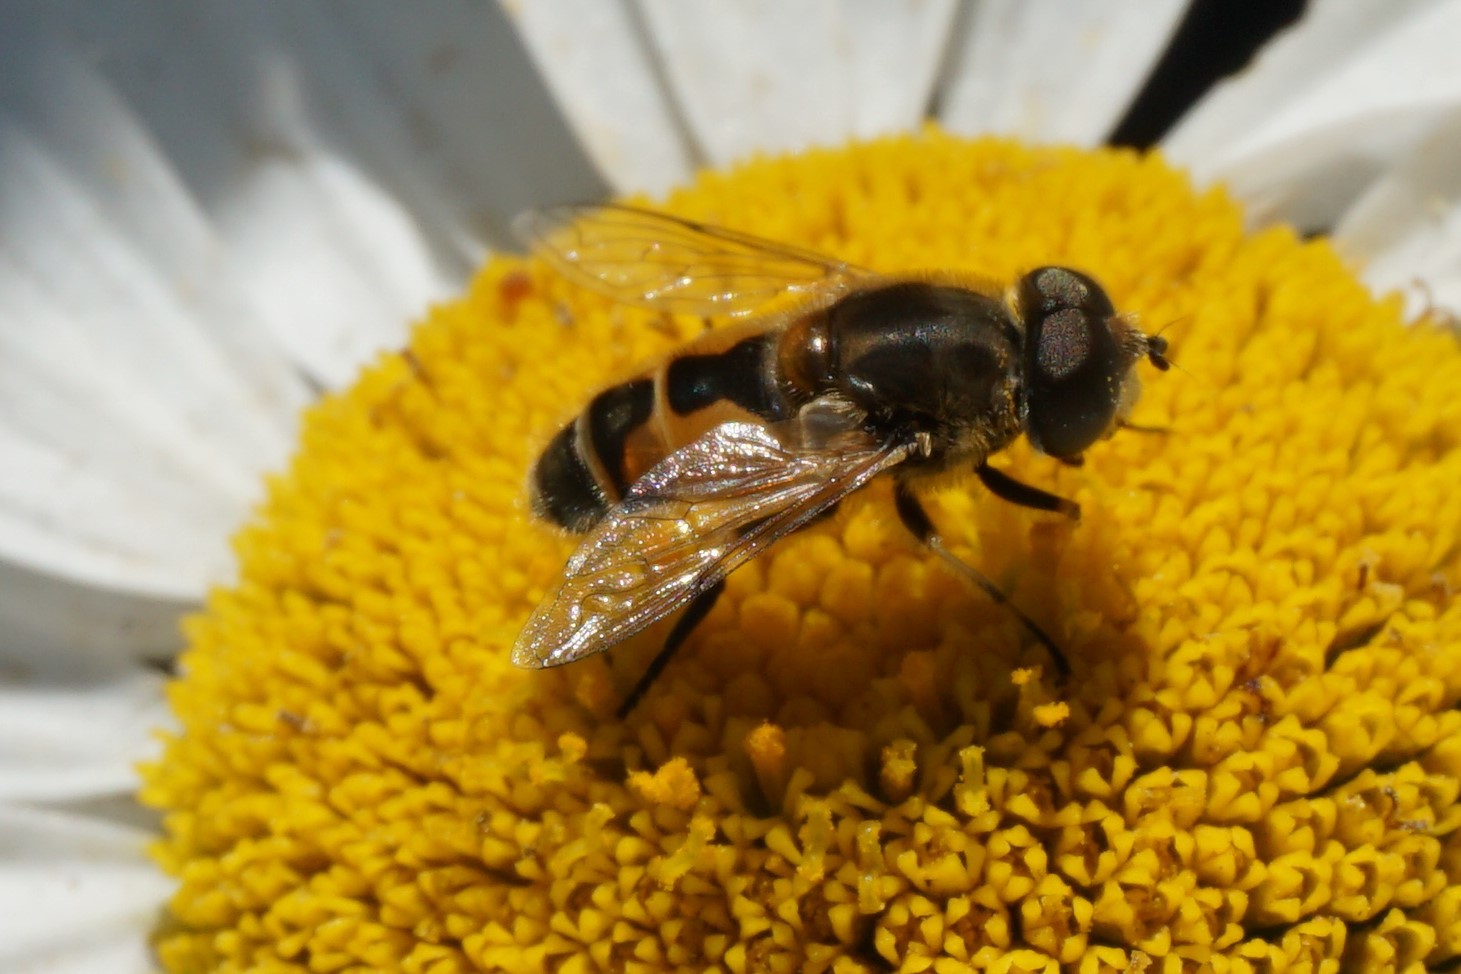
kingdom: Animalia
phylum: Arthropoda
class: Insecta
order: Diptera
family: Syrphidae
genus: Eristalis
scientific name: Eristalis arbustorum
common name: Hover fly
